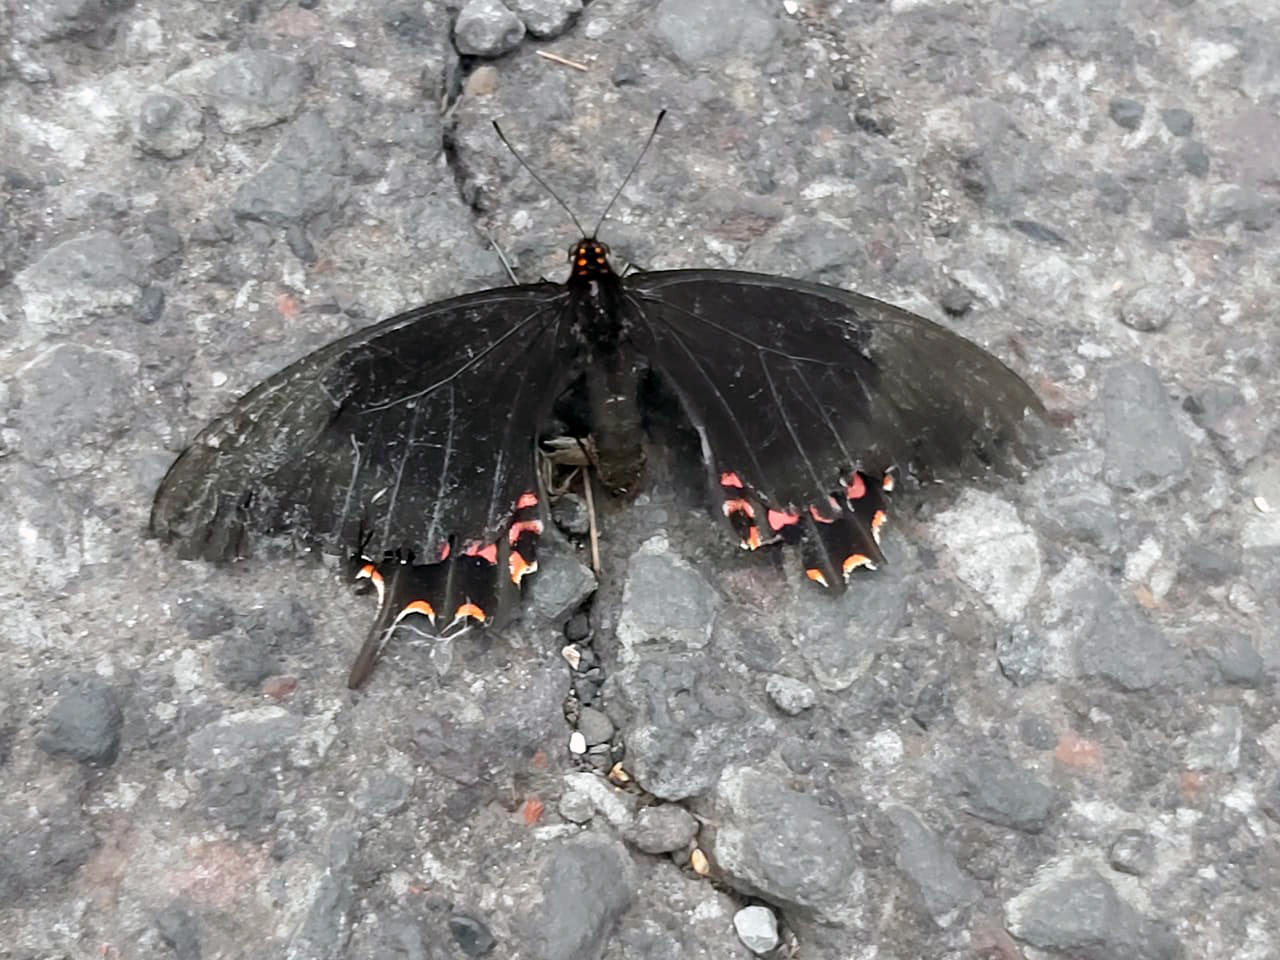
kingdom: Animalia
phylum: Arthropoda
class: Insecta
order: Lepidoptera
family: Papilionidae
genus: Heraclides
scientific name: Heraclides rogeri
